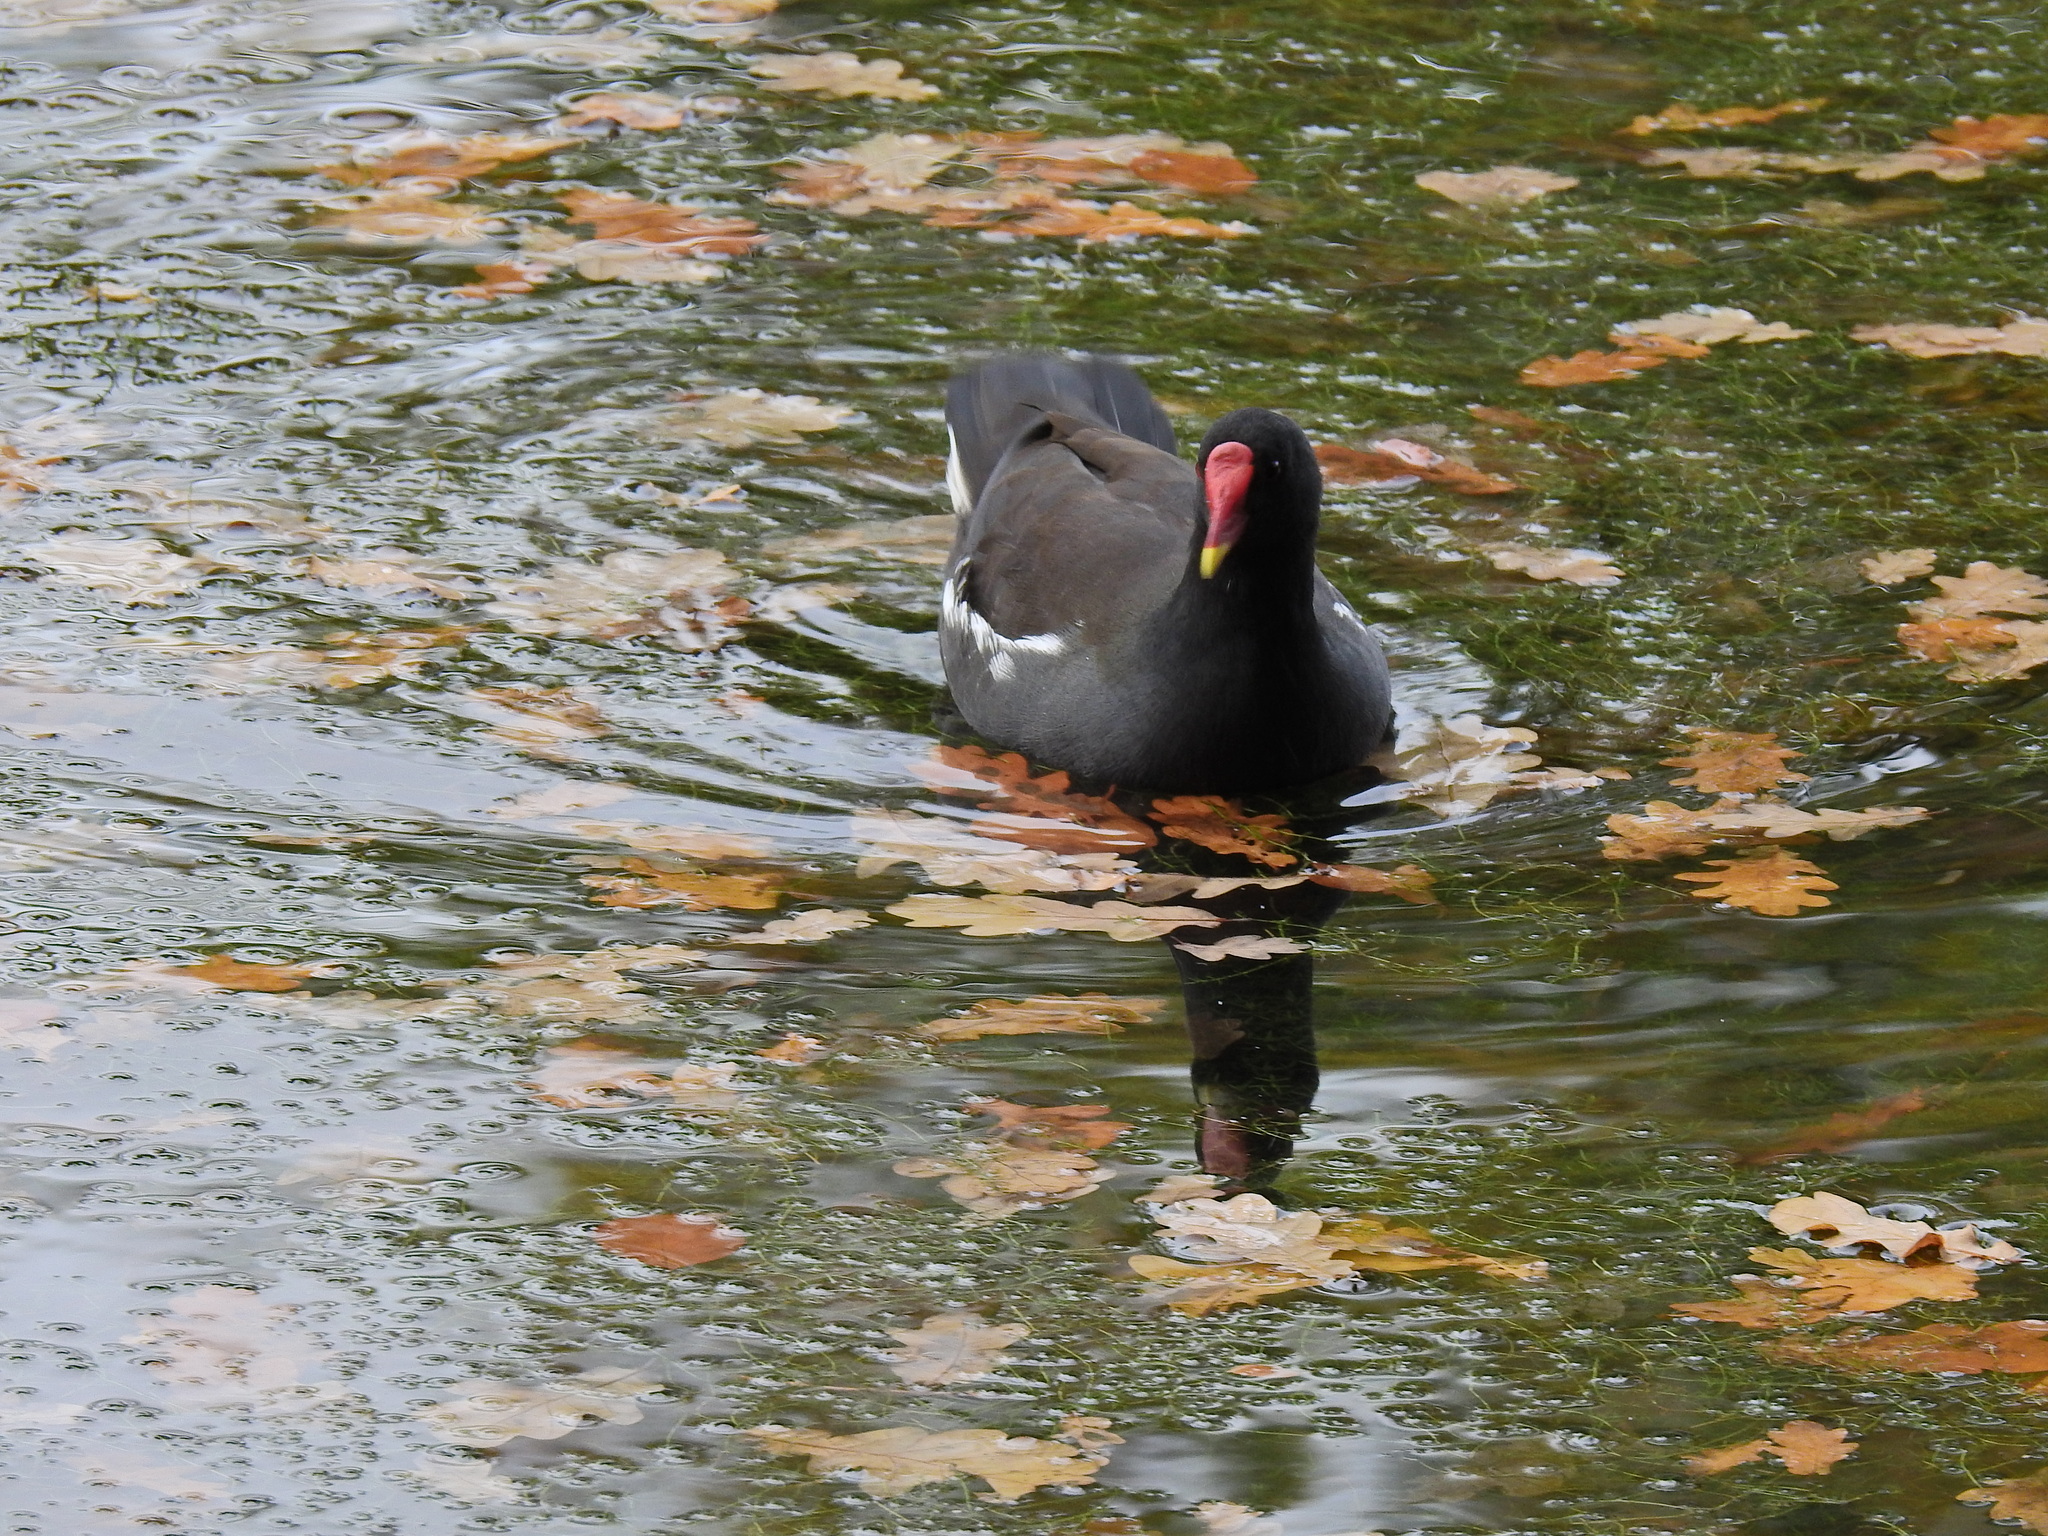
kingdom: Animalia
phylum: Chordata
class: Aves
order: Gruiformes
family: Rallidae
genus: Gallinula
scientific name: Gallinula chloropus
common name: Common moorhen
